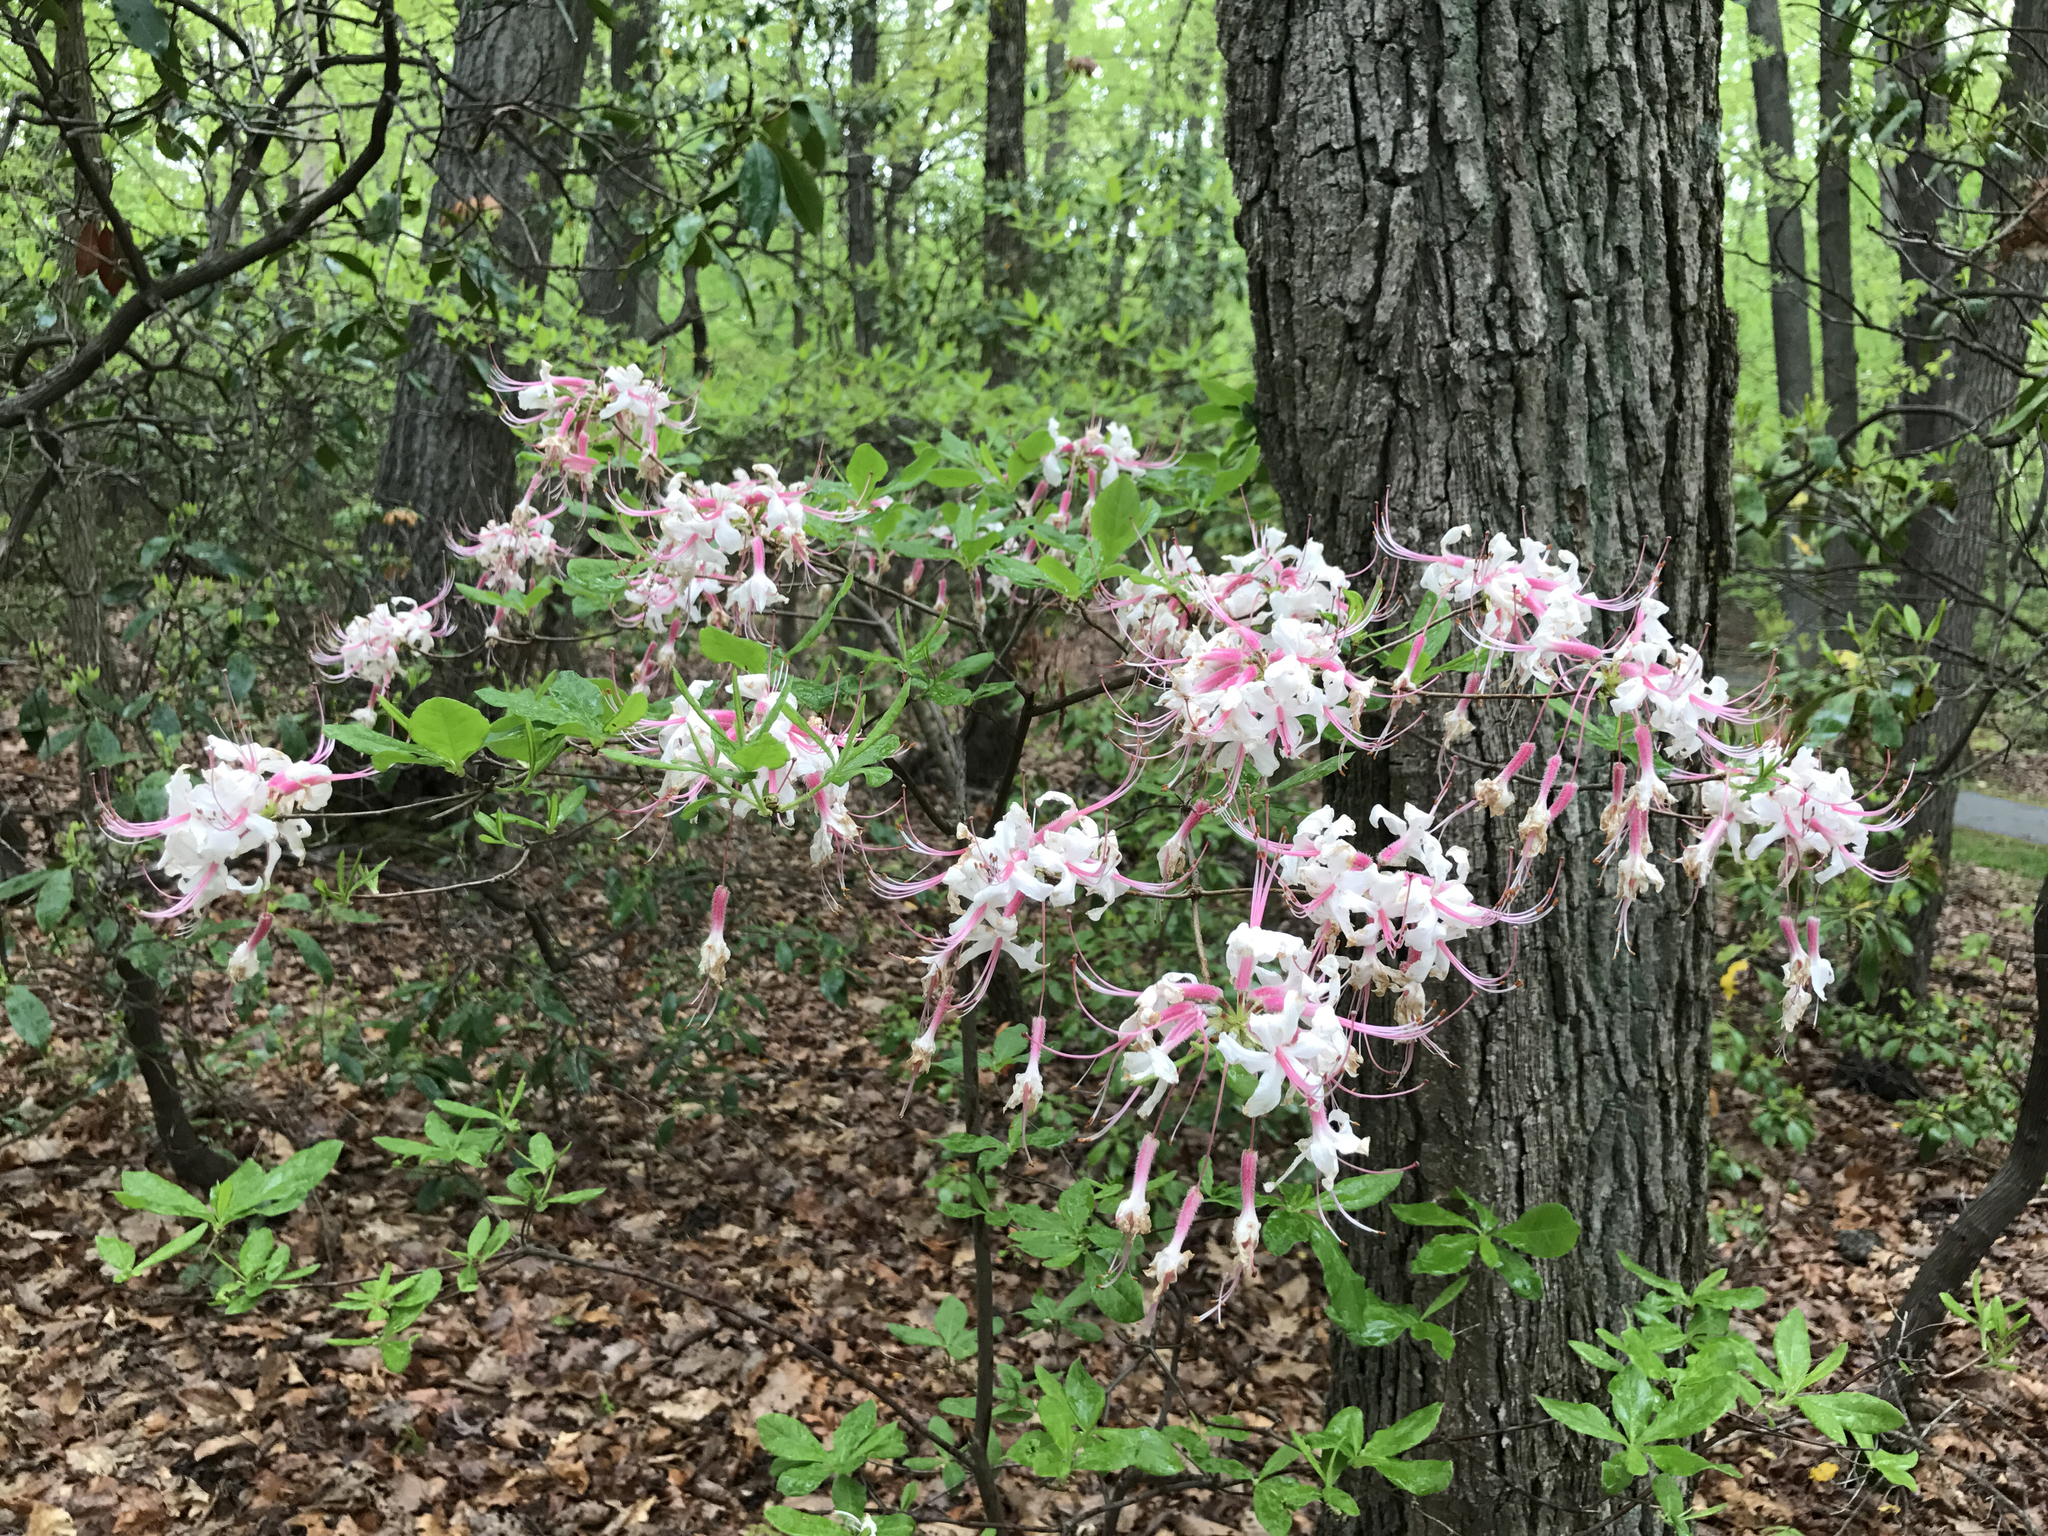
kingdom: Plantae
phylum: Tracheophyta
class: Magnoliopsida
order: Ericales
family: Ericaceae
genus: Rhododendron
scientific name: Rhododendron periclymenoides
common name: Election-pink
